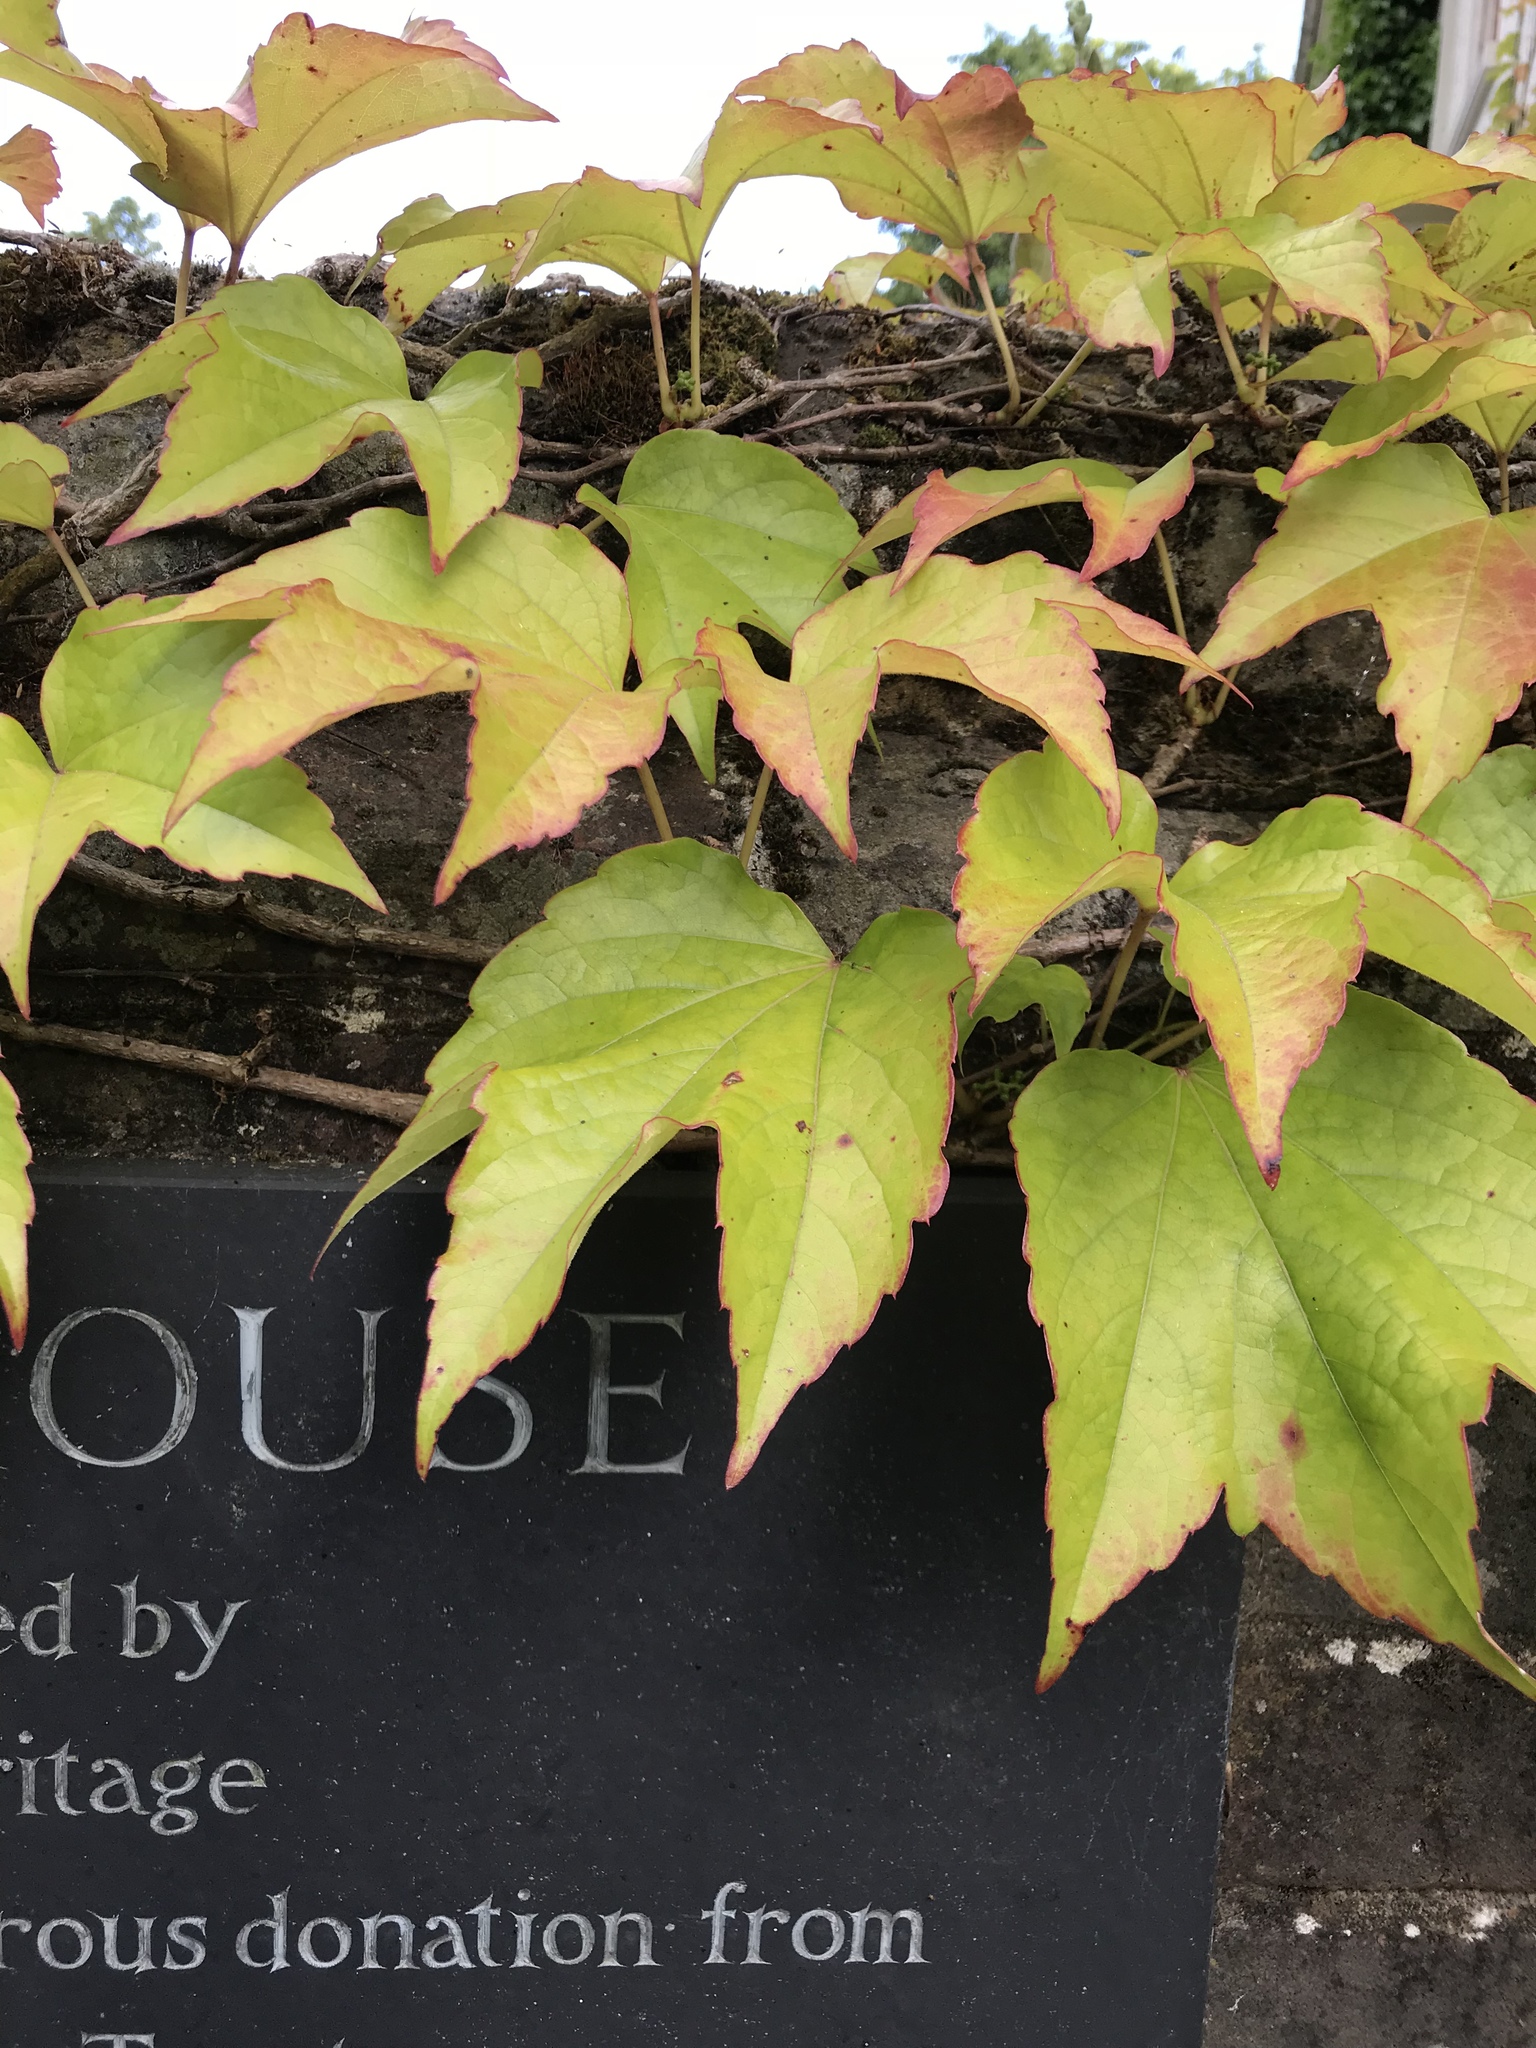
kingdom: Plantae
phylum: Tracheophyta
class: Magnoliopsida
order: Vitales
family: Vitaceae
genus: Parthenocissus
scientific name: Parthenocissus tricuspidata
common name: Boston ivy
